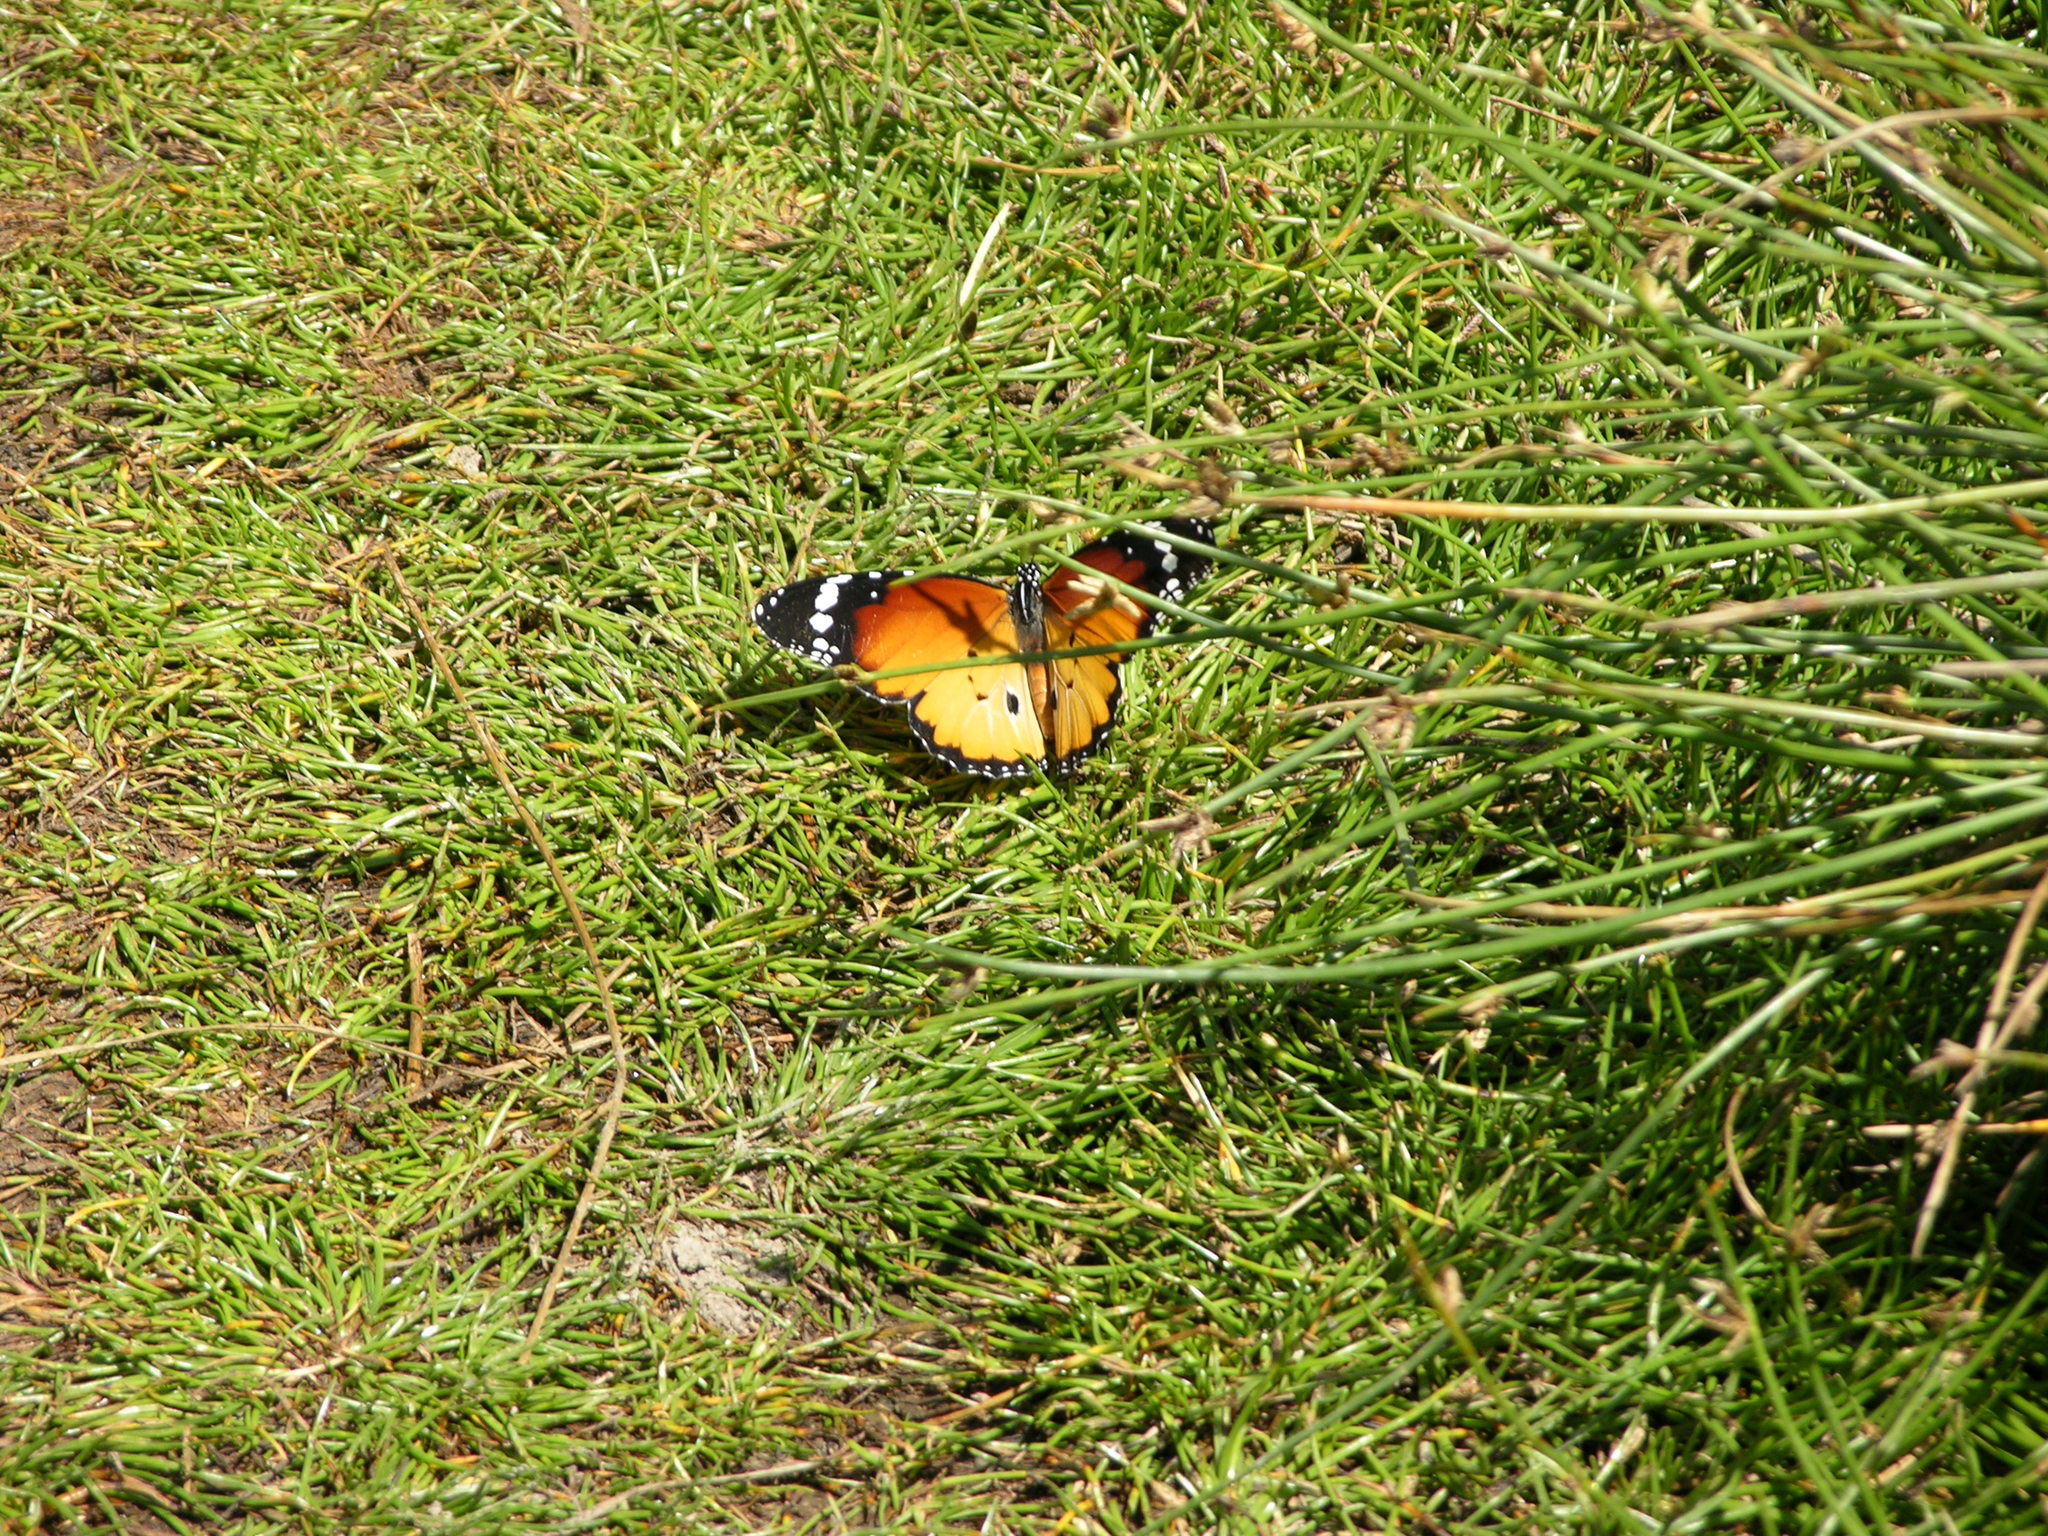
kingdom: Animalia
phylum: Arthropoda
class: Insecta
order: Lepidoptera
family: Nymphalidae
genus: Danaus
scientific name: Danaus chrysippus
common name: Plain tiger
